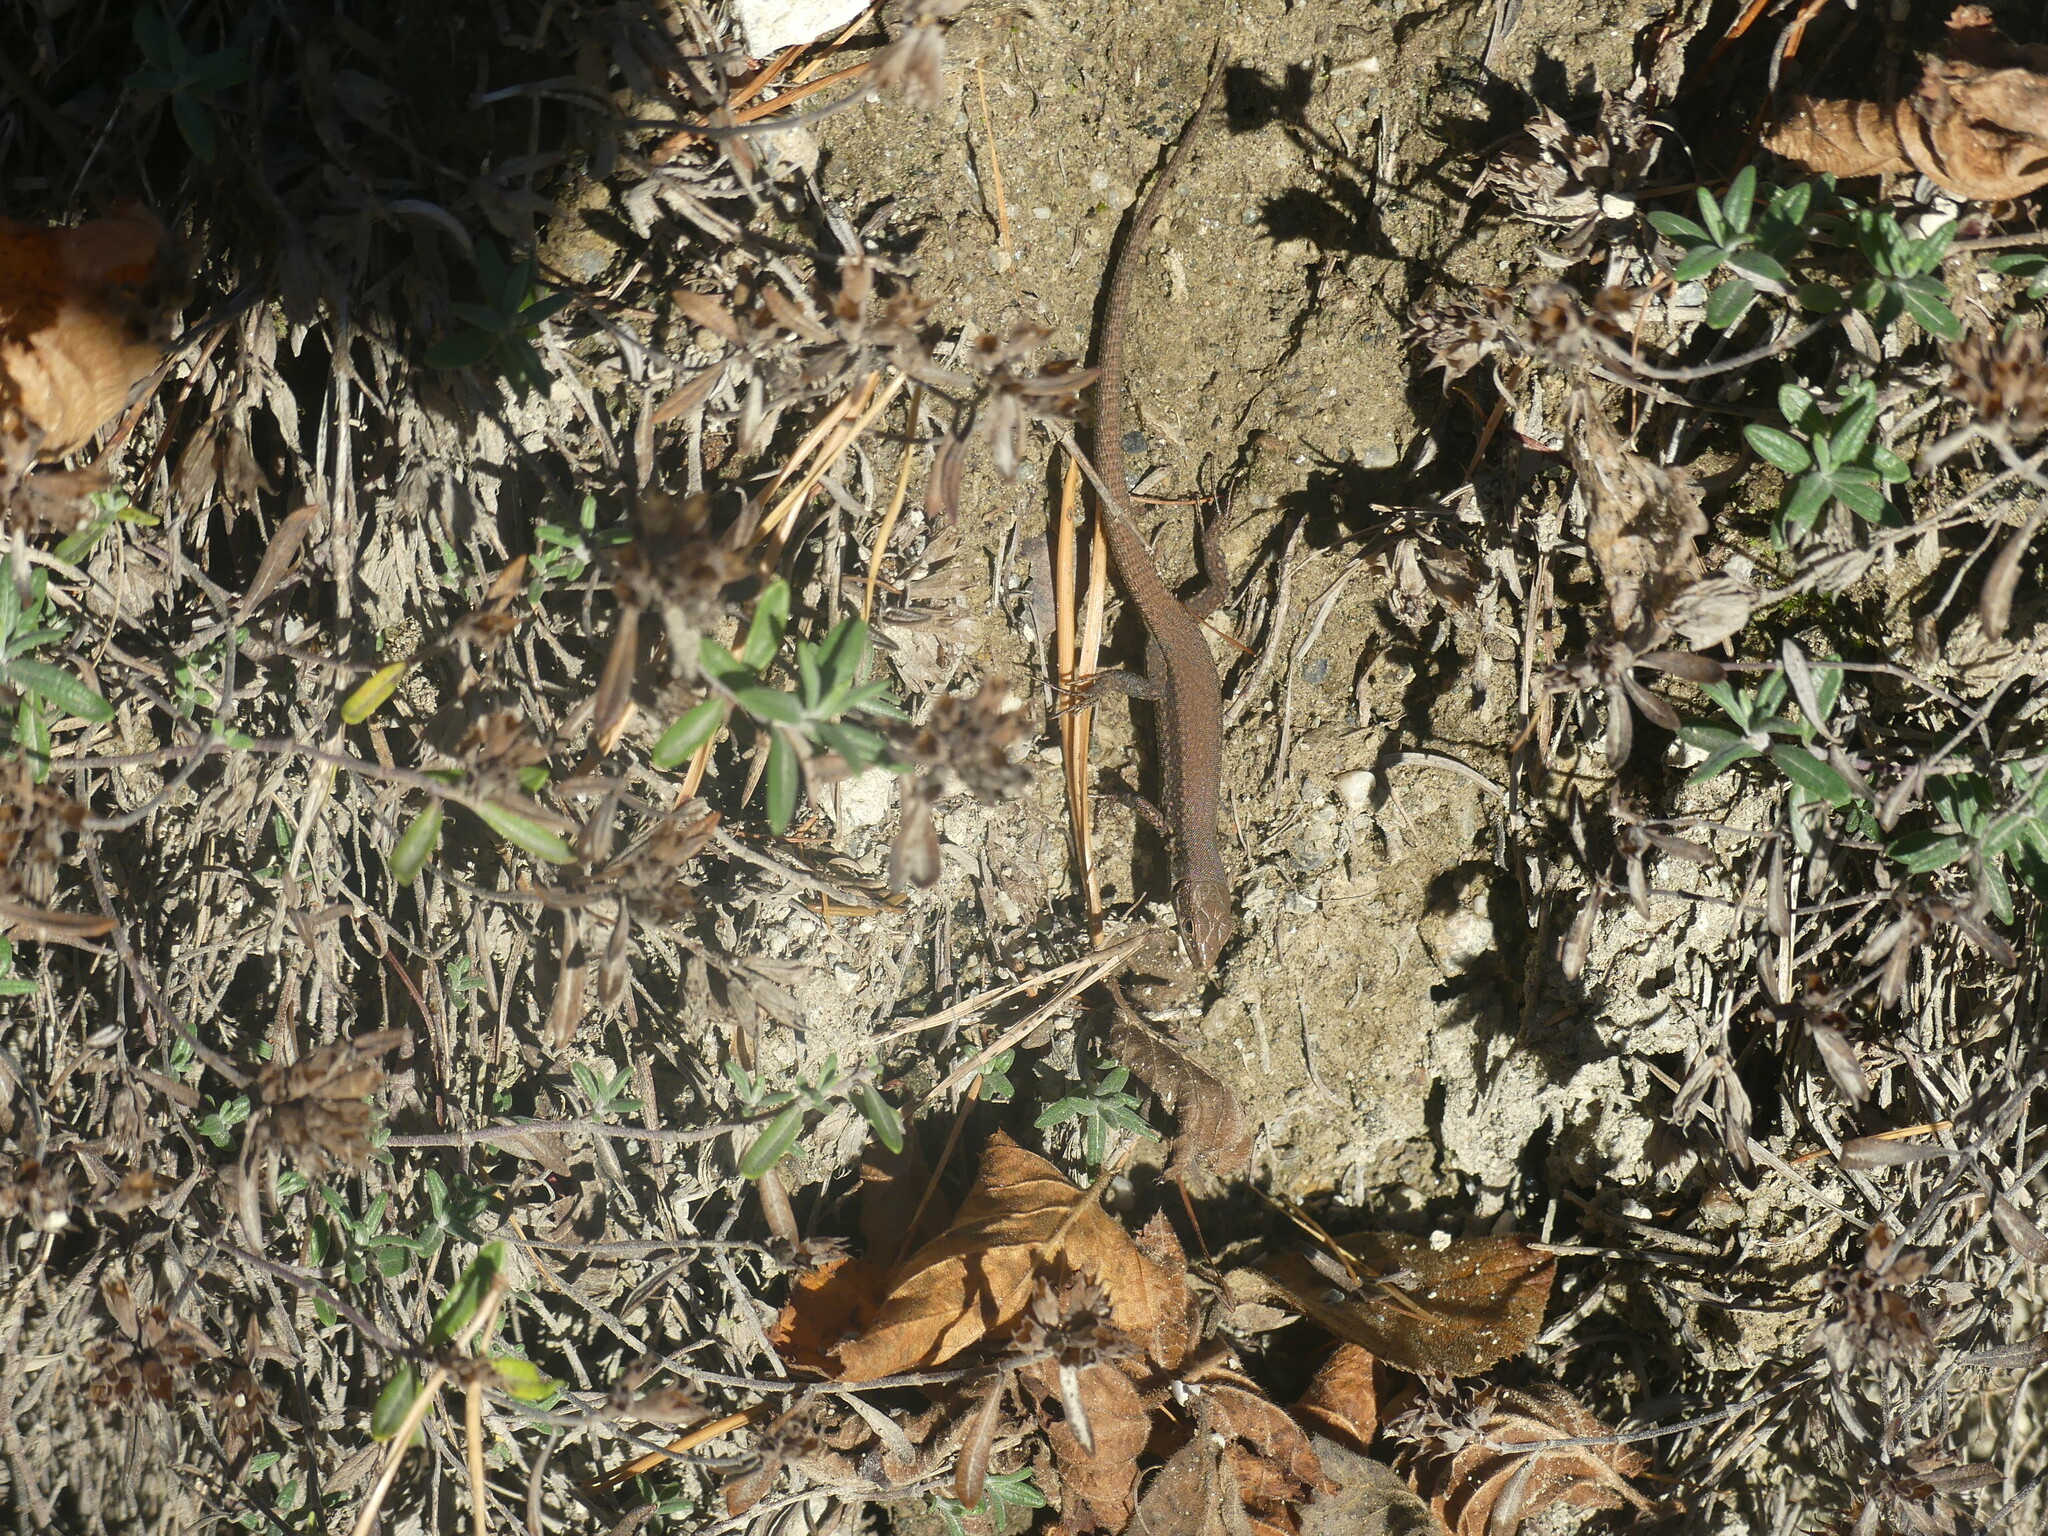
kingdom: Animalia
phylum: Chordata
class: Squamata
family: Lacertidae
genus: Podarcis
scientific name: Podarcis muralis
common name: Common wall lizard
